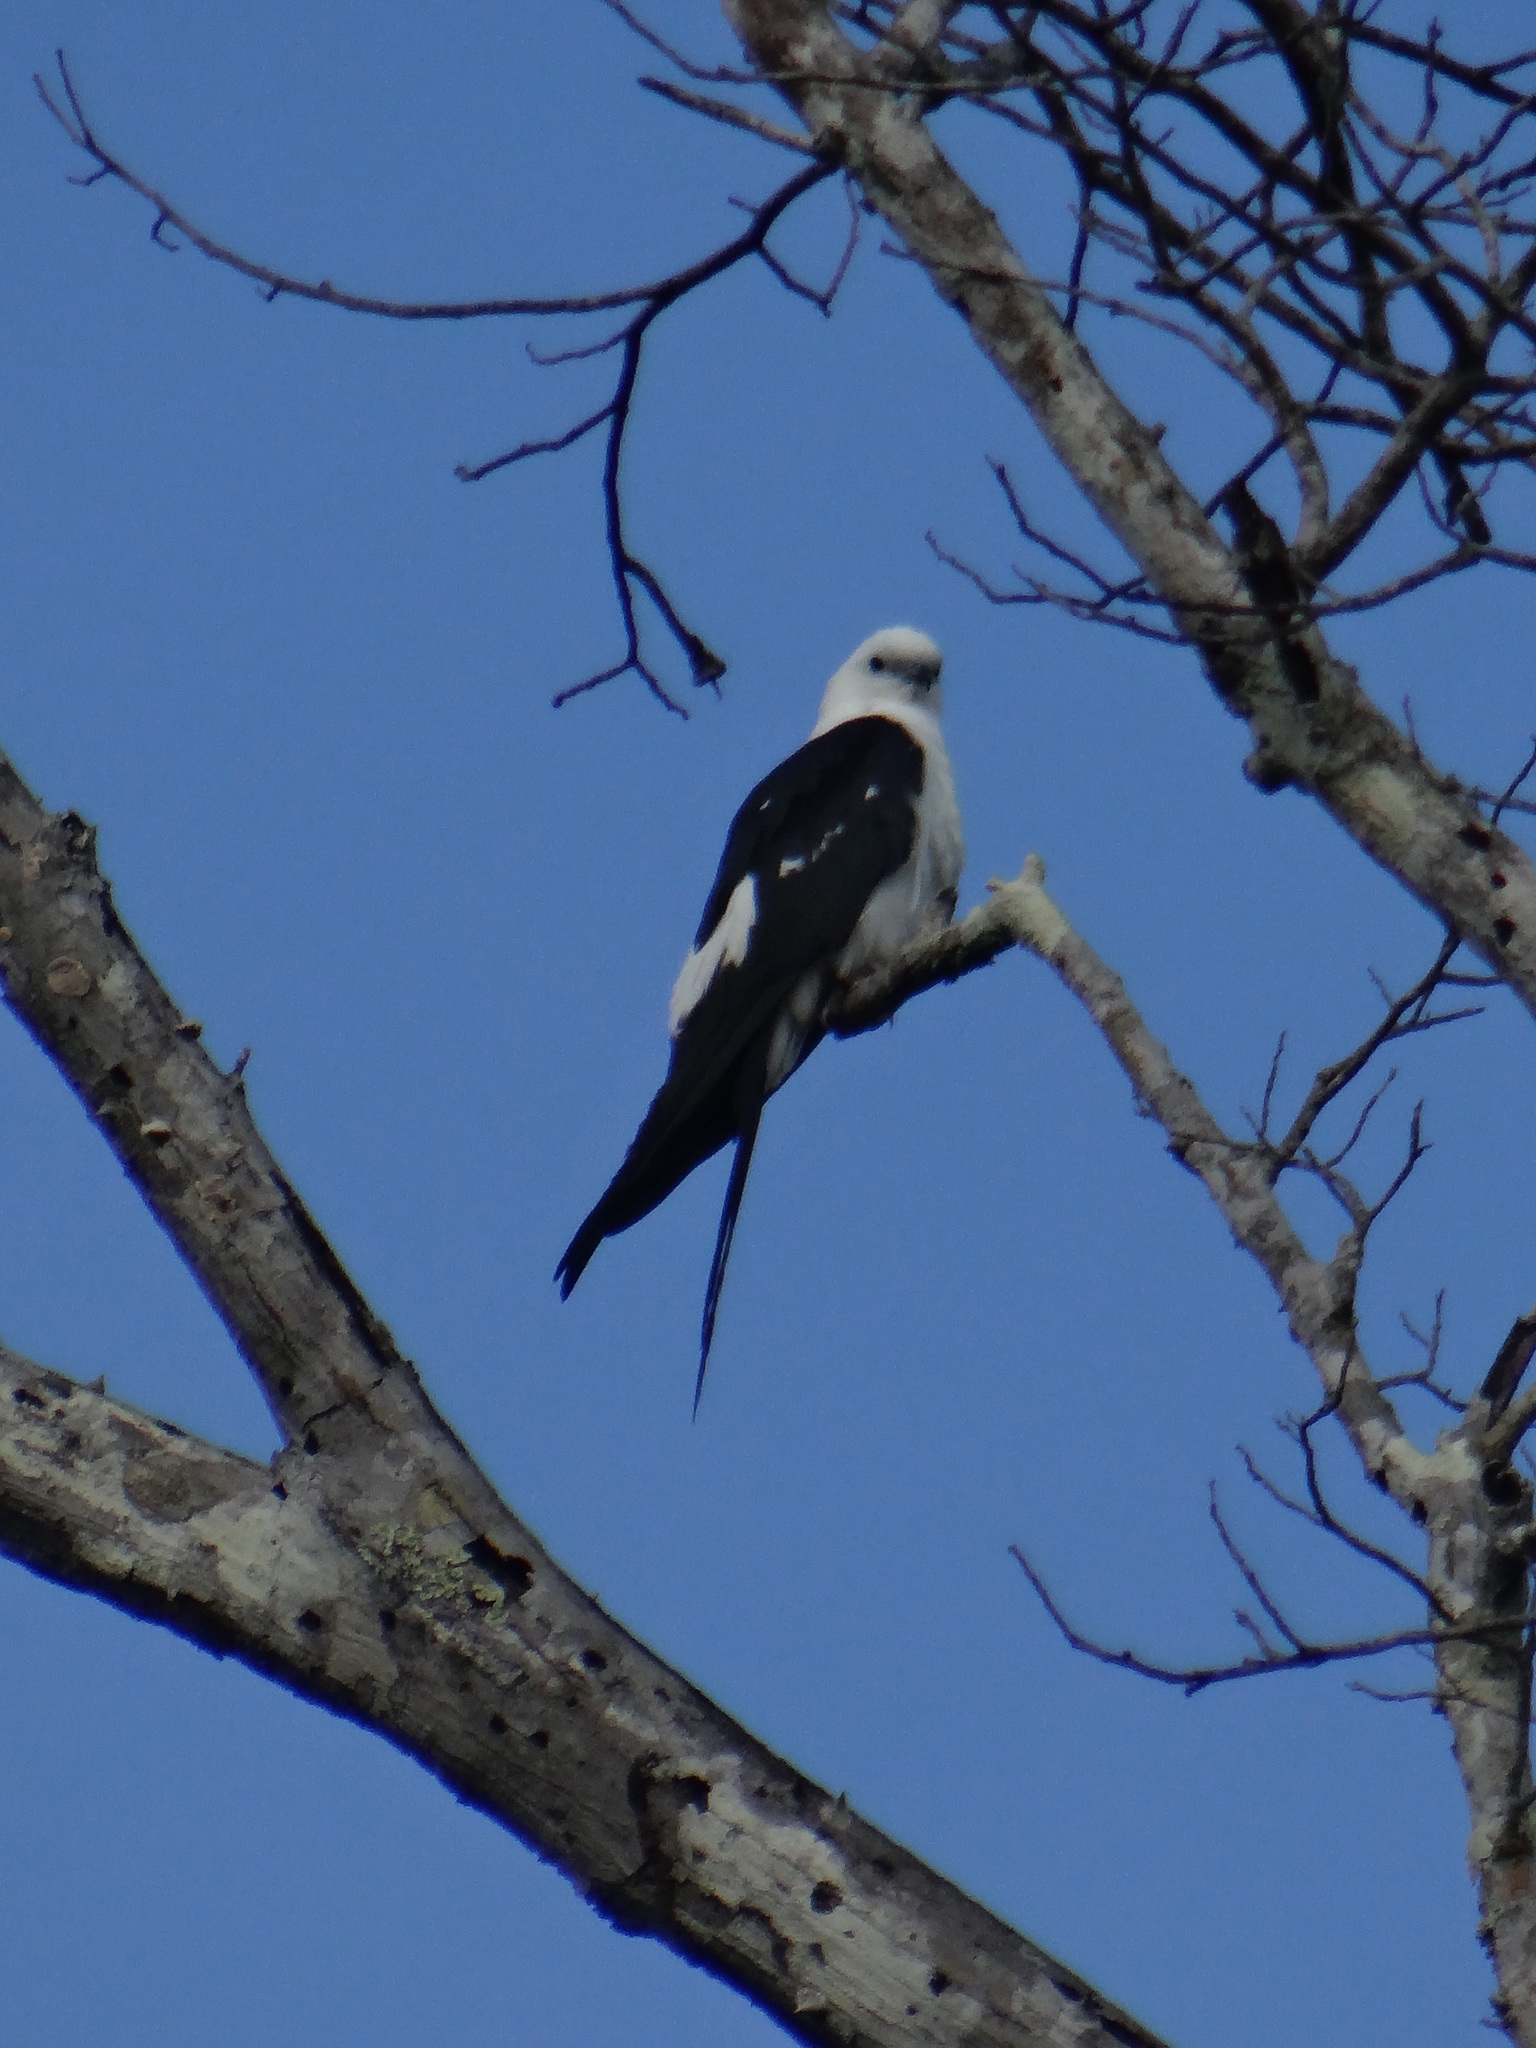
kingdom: Animalia
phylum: Chordata
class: Aves
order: Accipitriformes
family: Accipitridae
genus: Elanoides
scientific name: Elanoides forficatus
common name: Swallow-tailed kite
